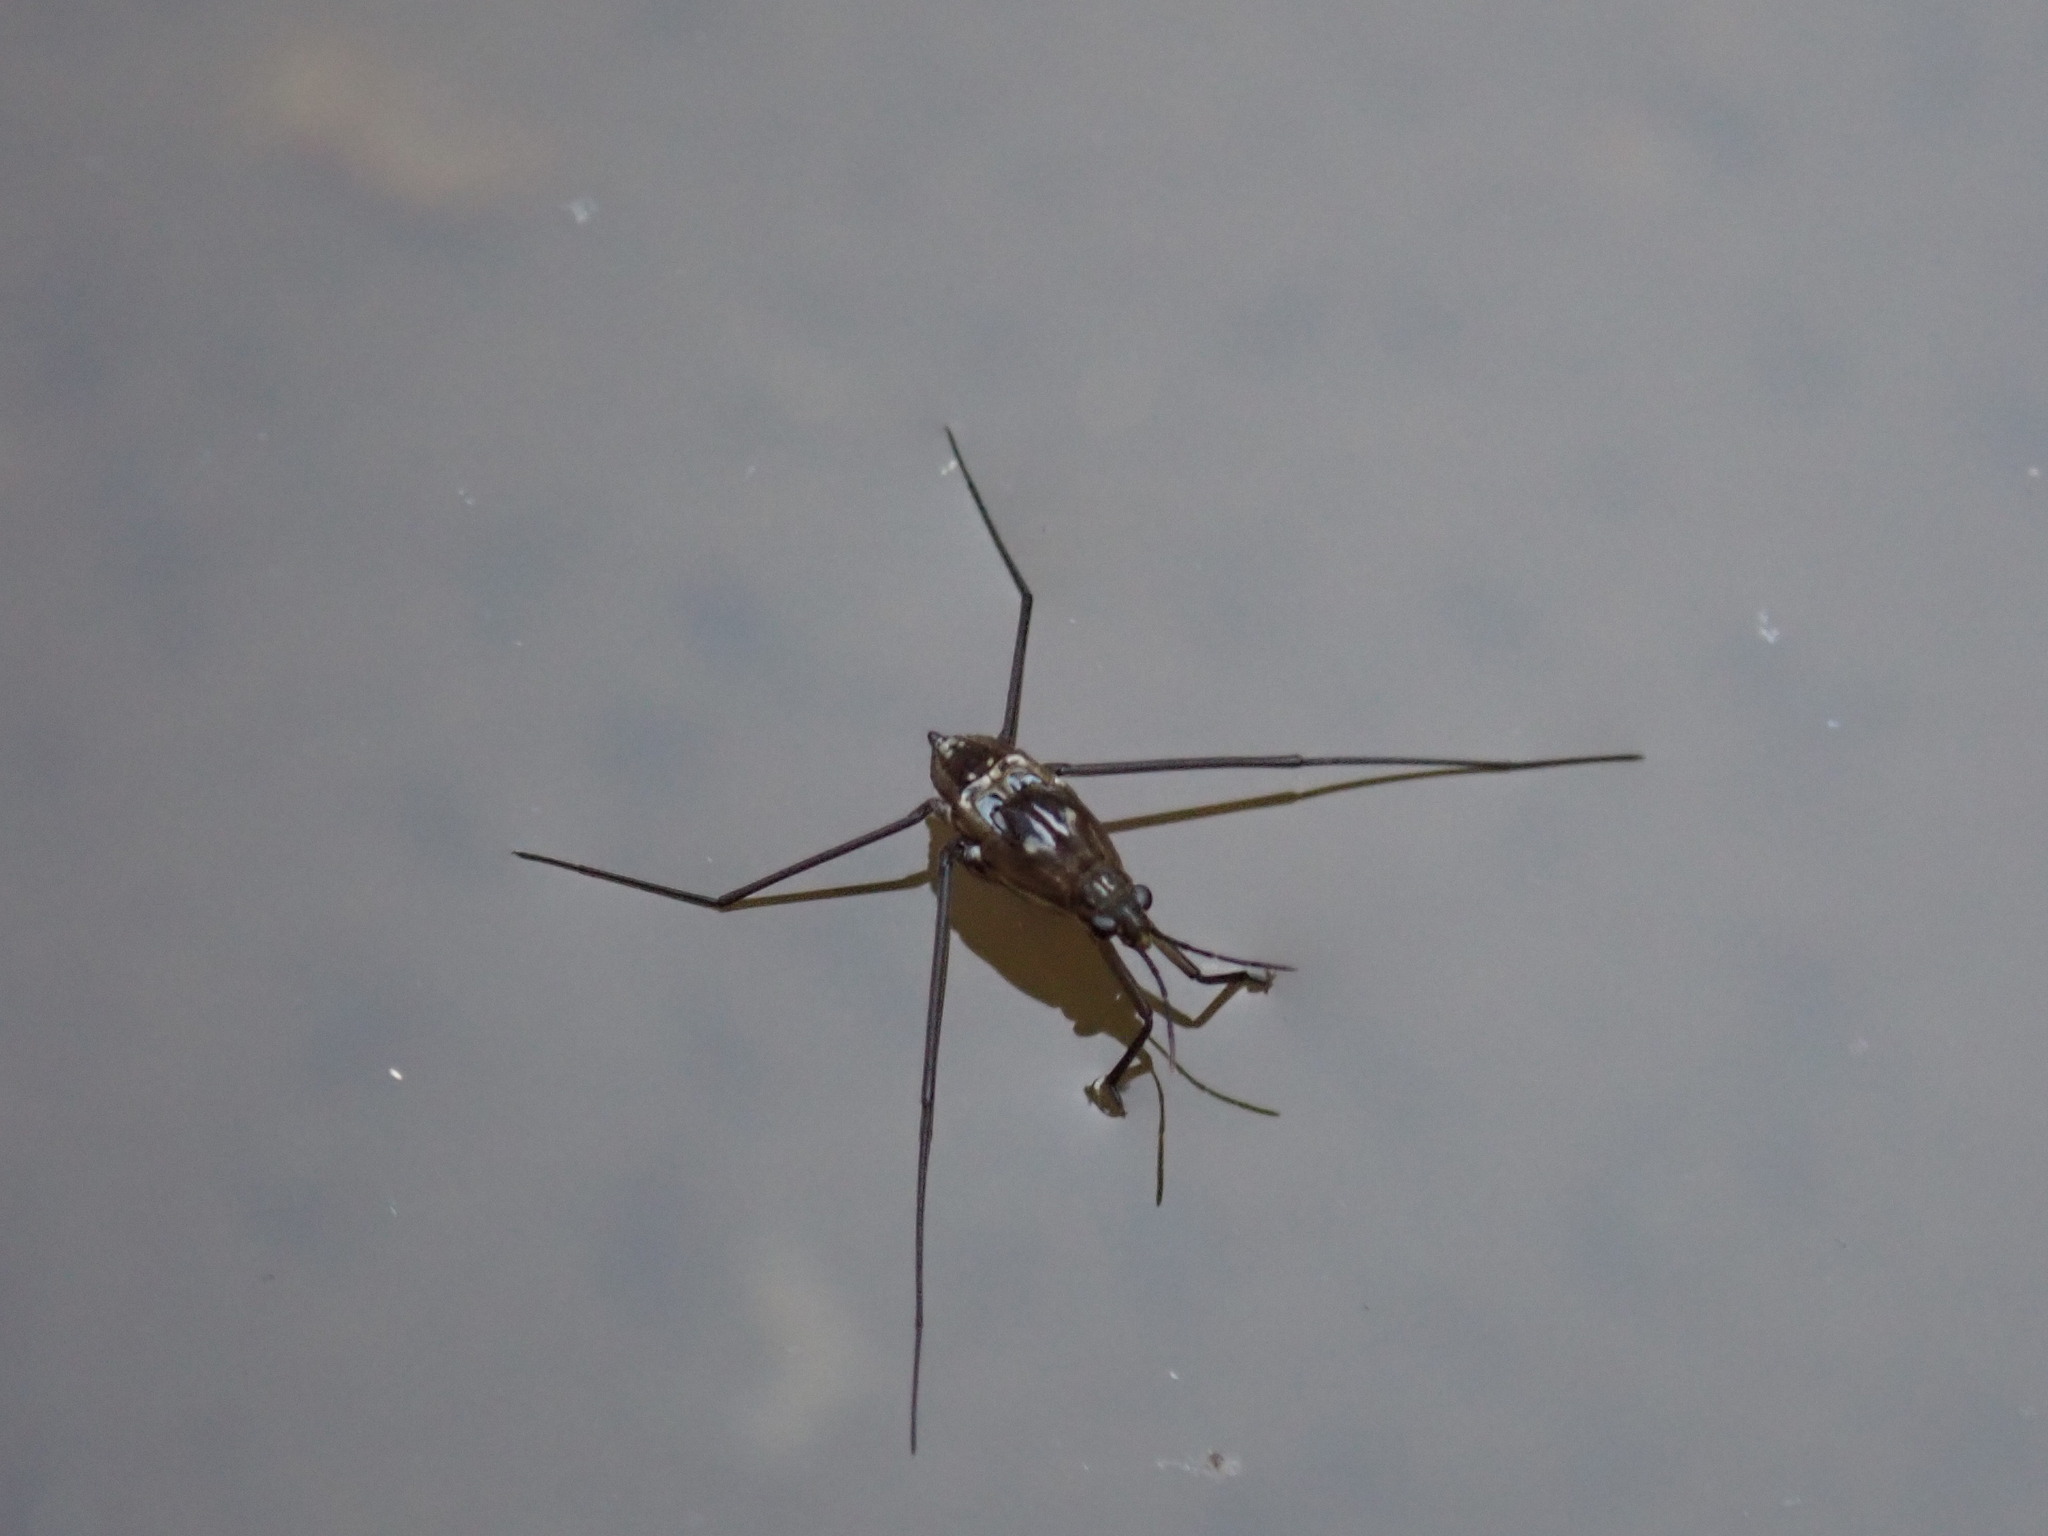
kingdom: Animalia
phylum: Arthropoda
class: Insecta
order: Hemiptera
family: Gerridae
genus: Aquarius
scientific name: Aquarius remigis
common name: Common water strider
